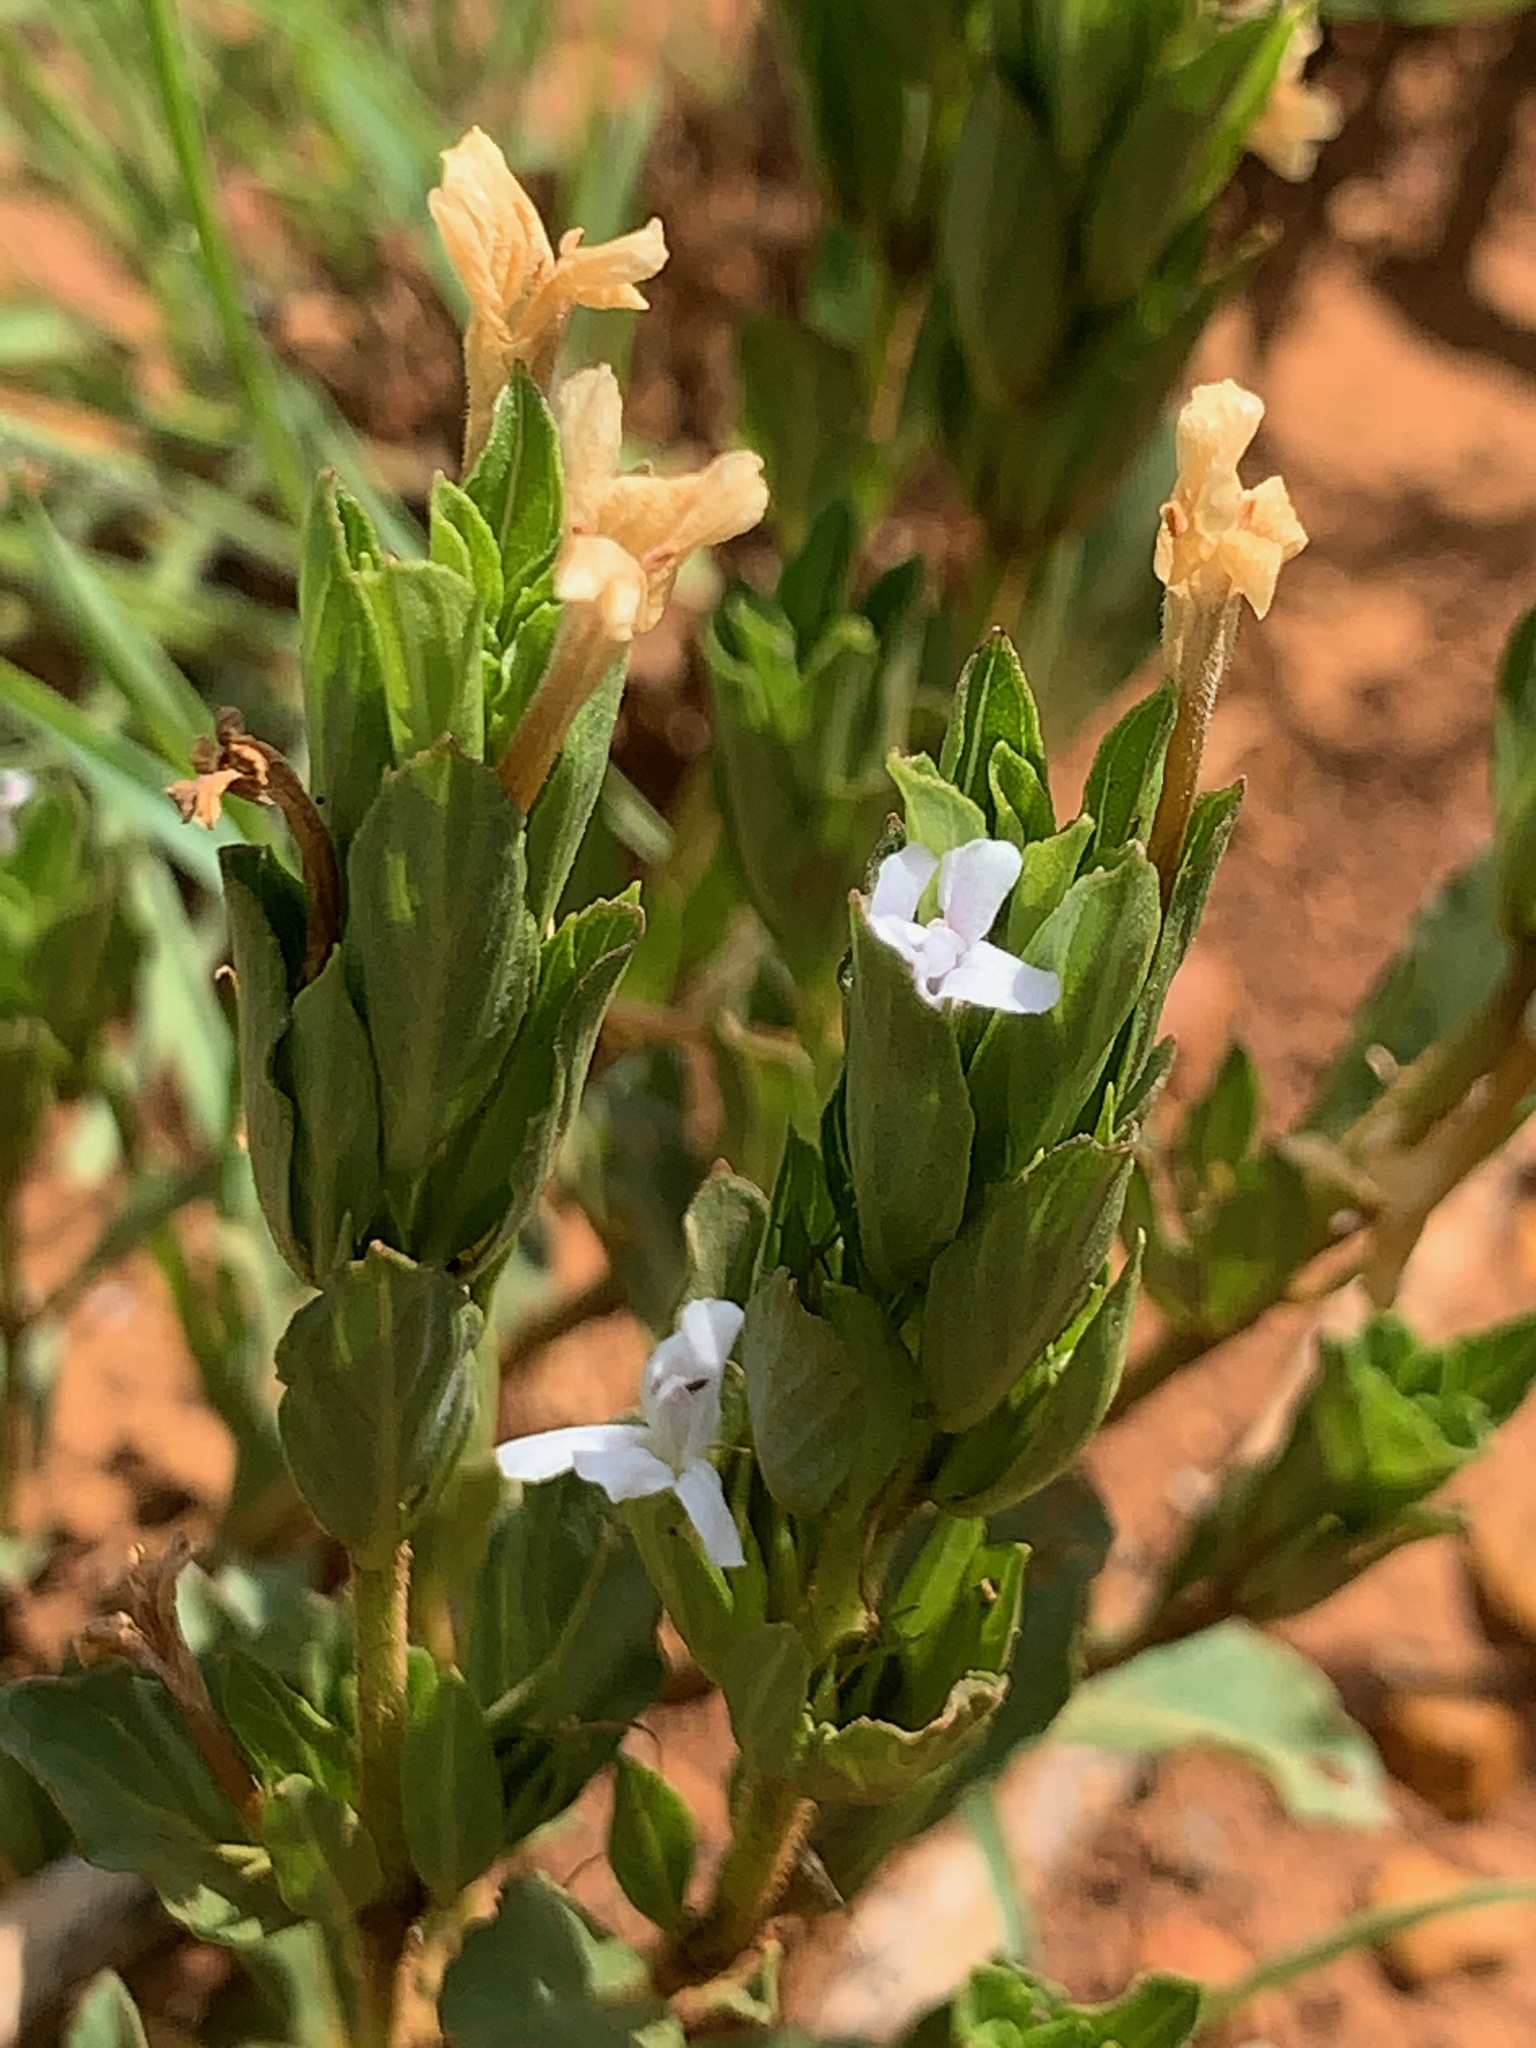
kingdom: Plantae
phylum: Tracheophyta
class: Magnoliopsida
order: Lamiales
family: Acanthaceae
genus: Dyschoriste
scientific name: Dyschoriste setigera
